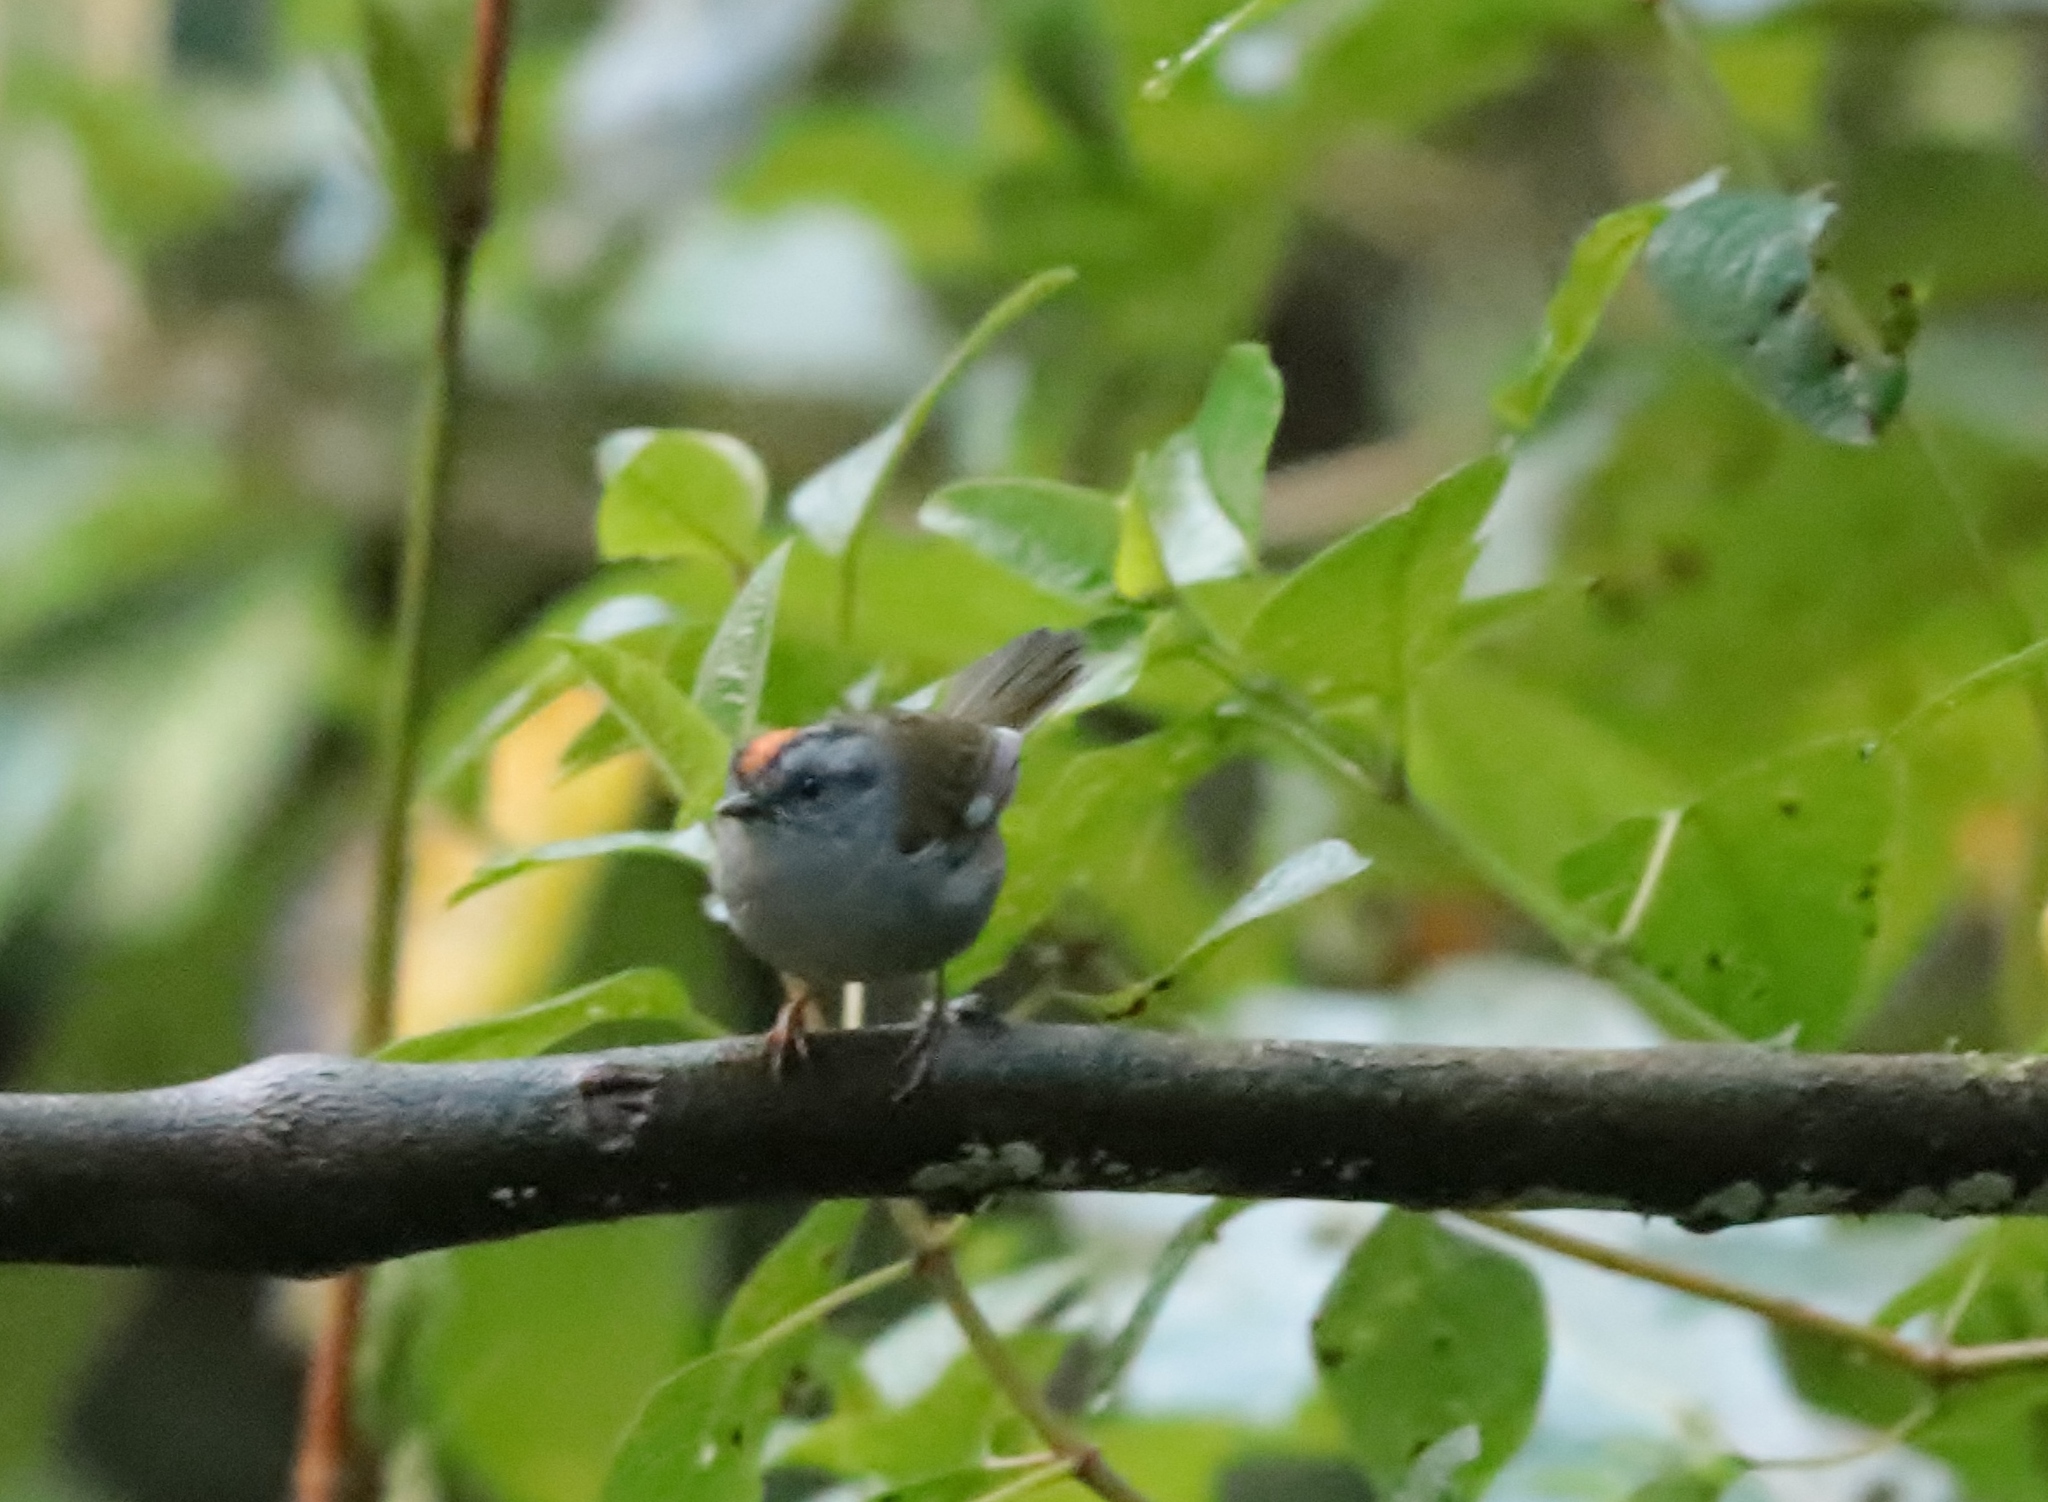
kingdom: Animalia
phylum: Chordata
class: Aves
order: Passeriformes
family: Parulidae
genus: Myiothlypis
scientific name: Myiothlypis coronata
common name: Russet-crowned warbler
